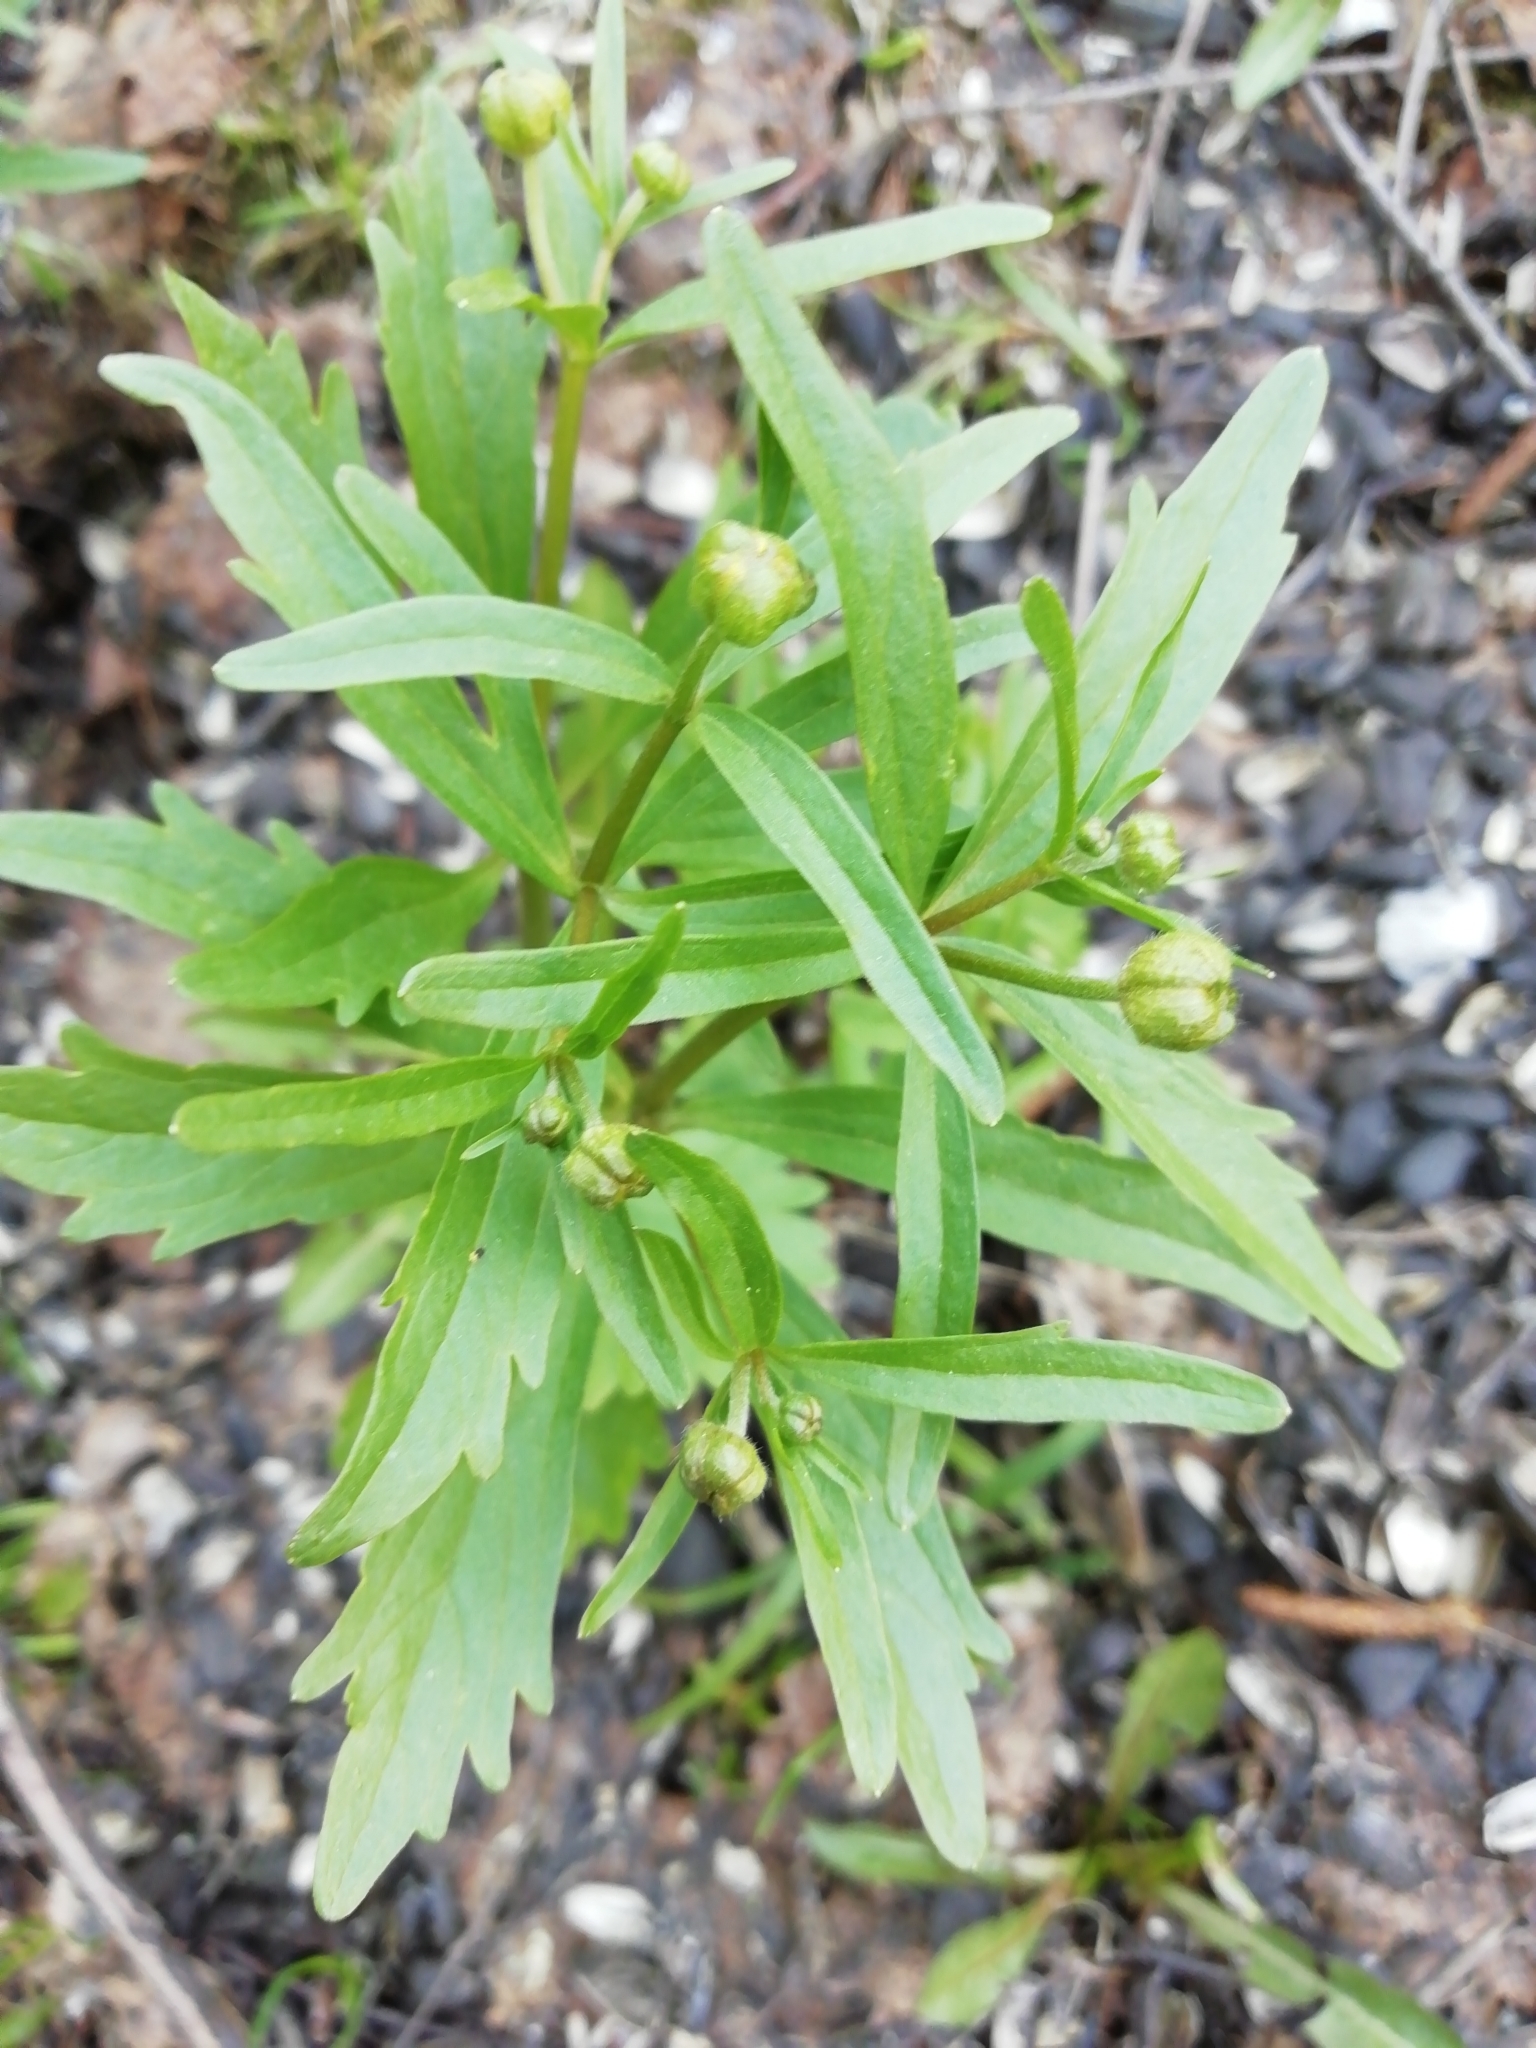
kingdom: Plantae
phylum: Tracheophyta
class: Magnoliopsida
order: Ranunculales
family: Ranunculaceae
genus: Ranunculus
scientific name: Ranunculus monophyllus
